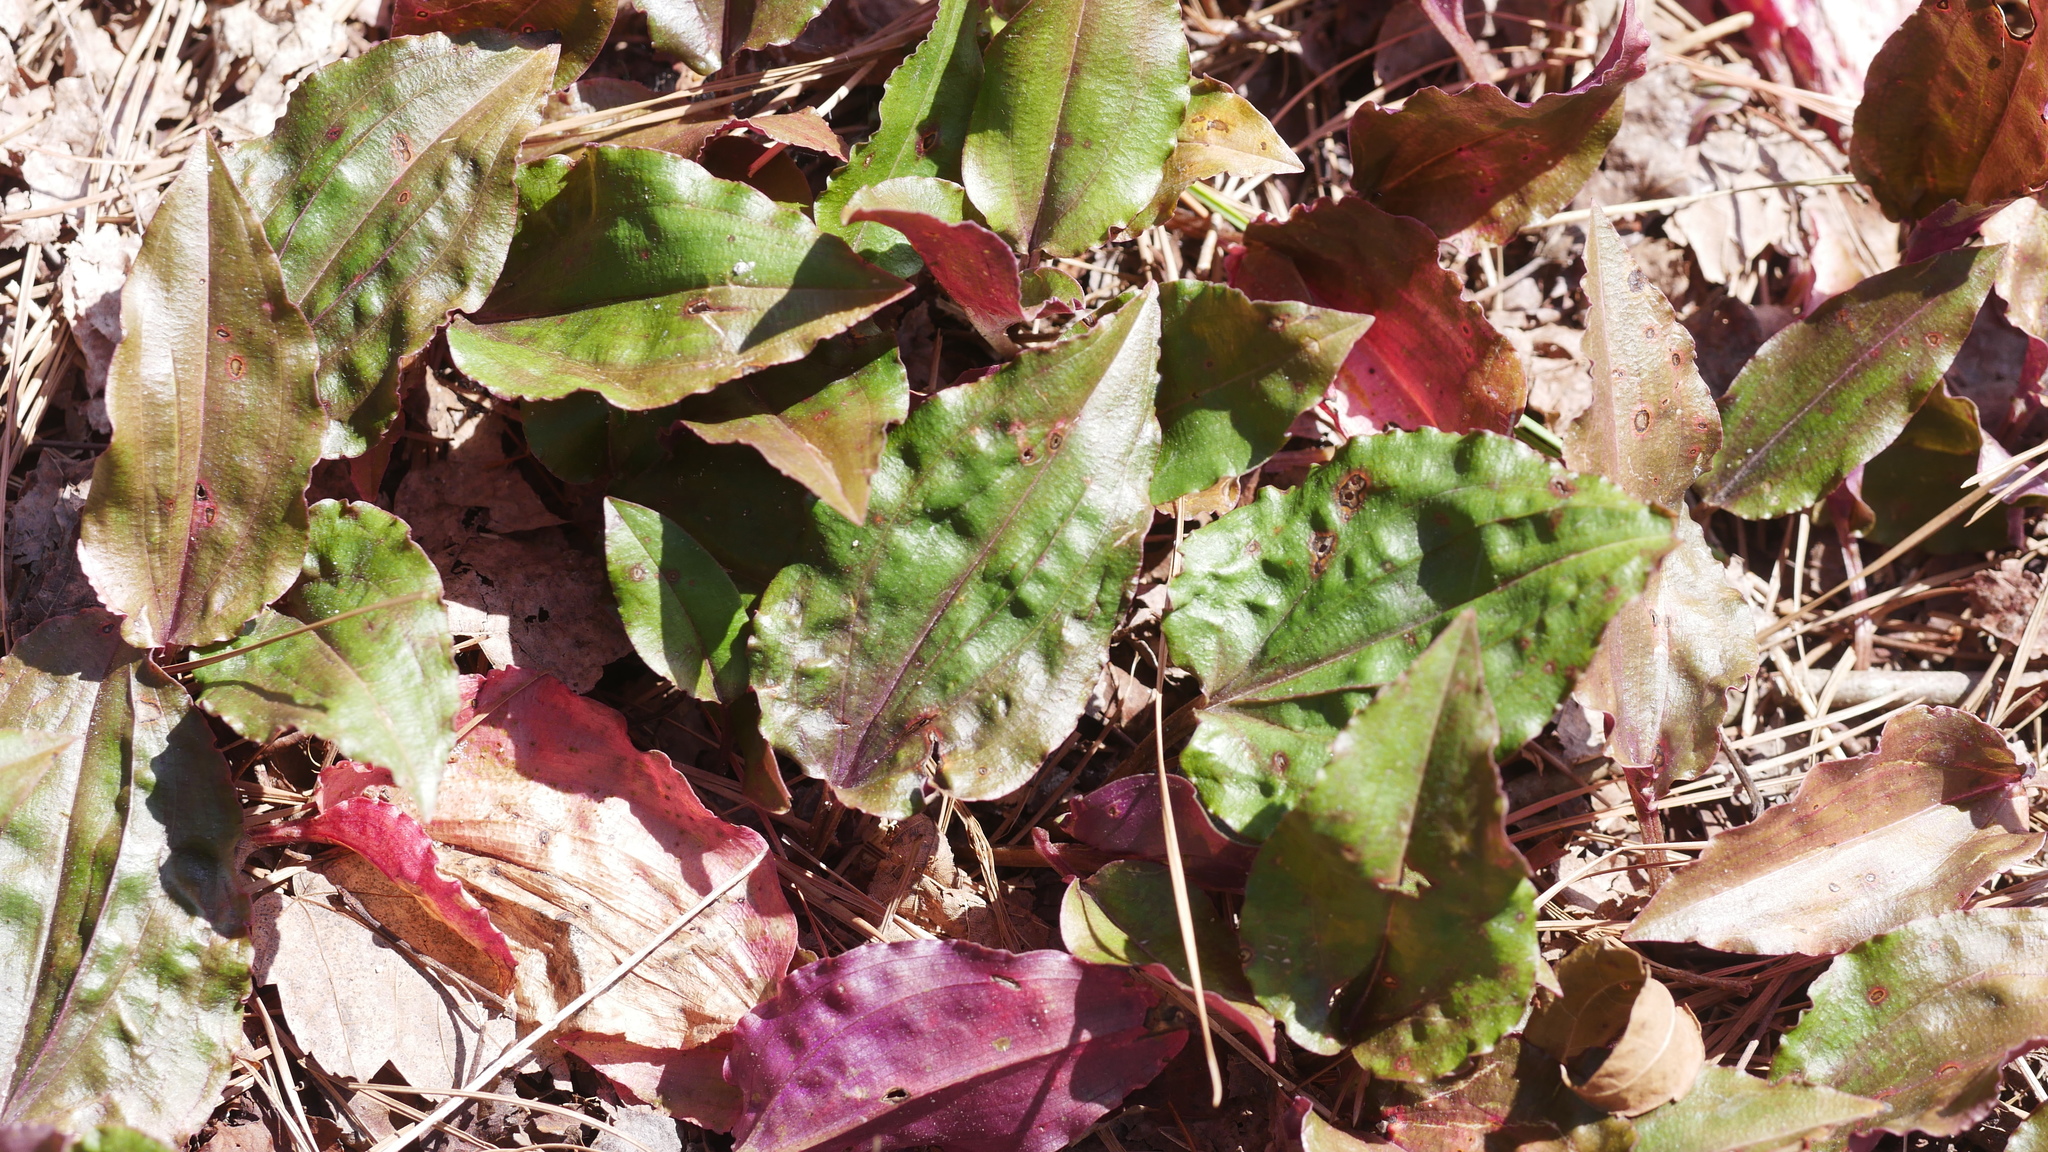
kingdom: Plantae
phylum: Tracheophyta
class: Liliopsida
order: Asparagales
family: Orchidaceae
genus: Tipularia
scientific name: Tipularia discolor
